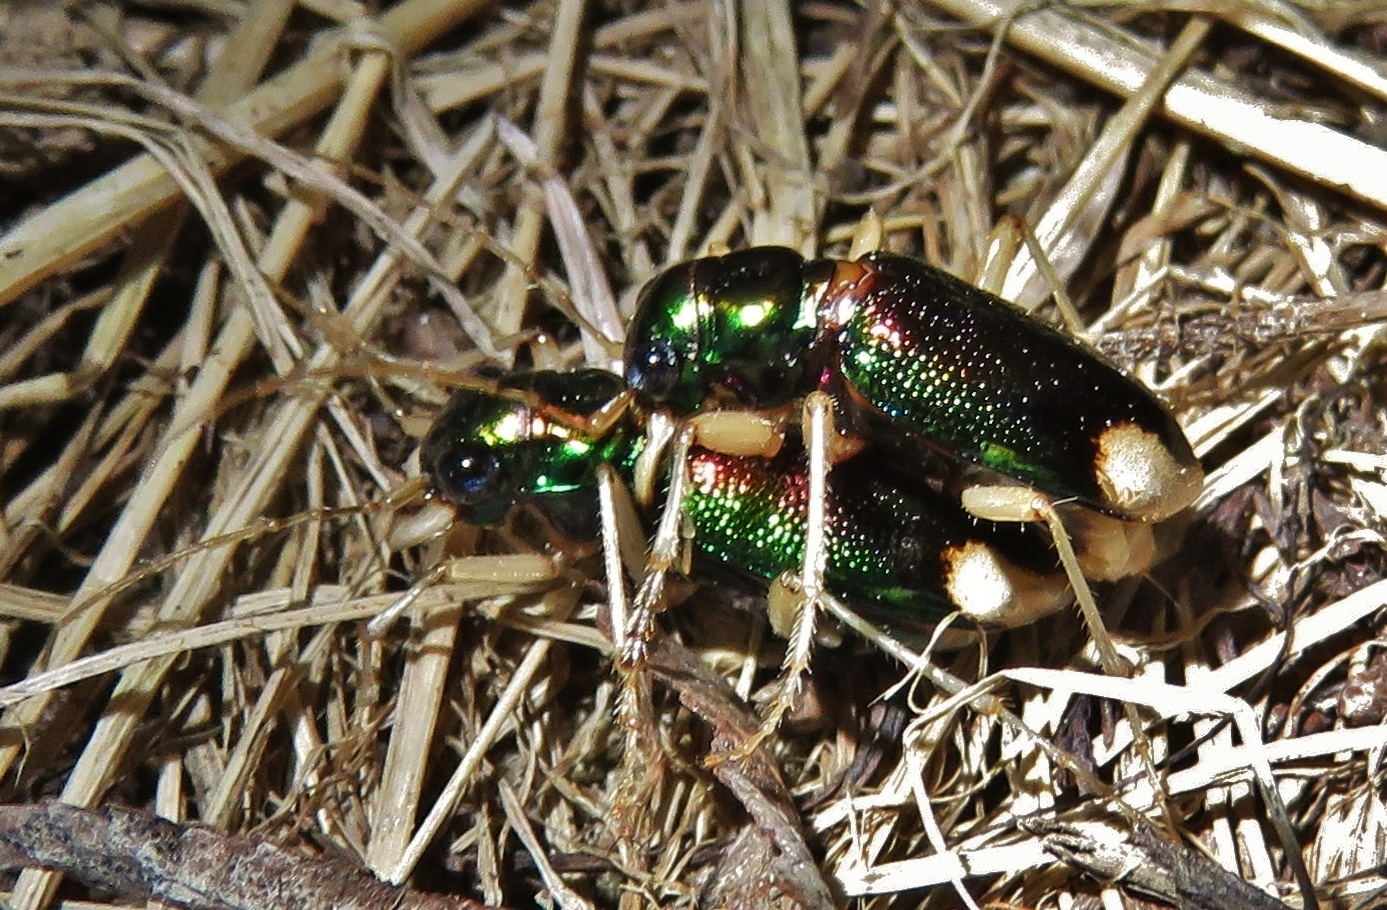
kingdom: Animalia
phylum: Arthropoda
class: Insecta
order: Coleoptera
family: Carabidae
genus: Tetracha
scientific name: Tetracha carolina
